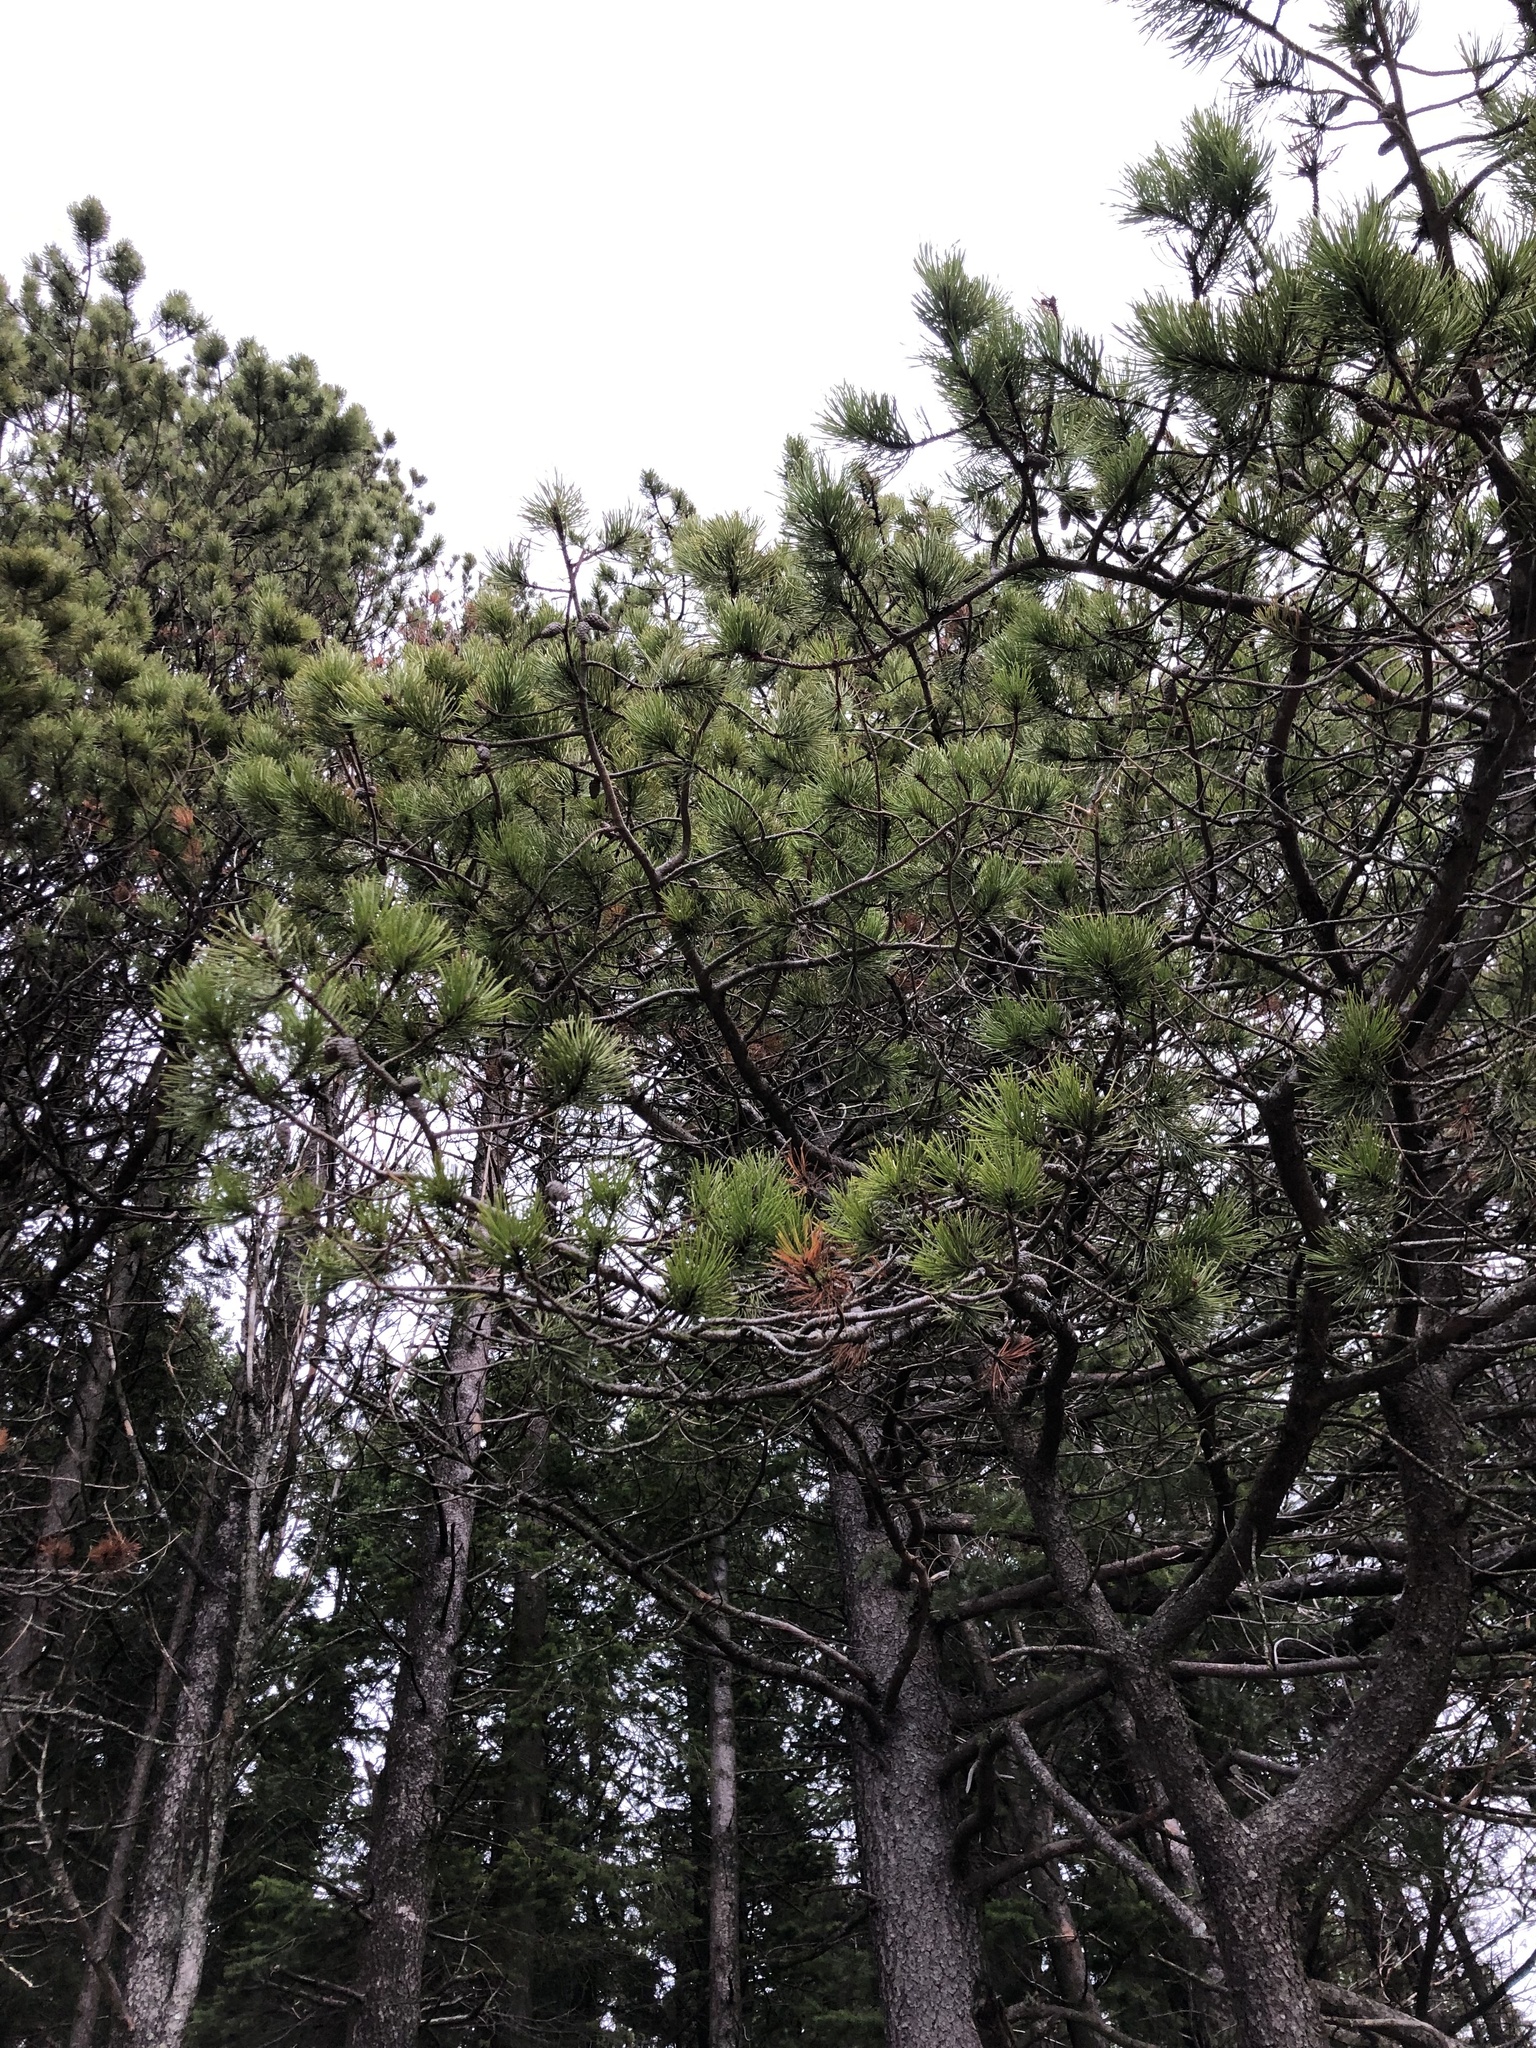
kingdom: Plantae
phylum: Tracheophyta
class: Pinopsida
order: Pinales
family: Pinaceae
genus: Pinus
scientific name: Pinus contorta
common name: Lodgepole pine
